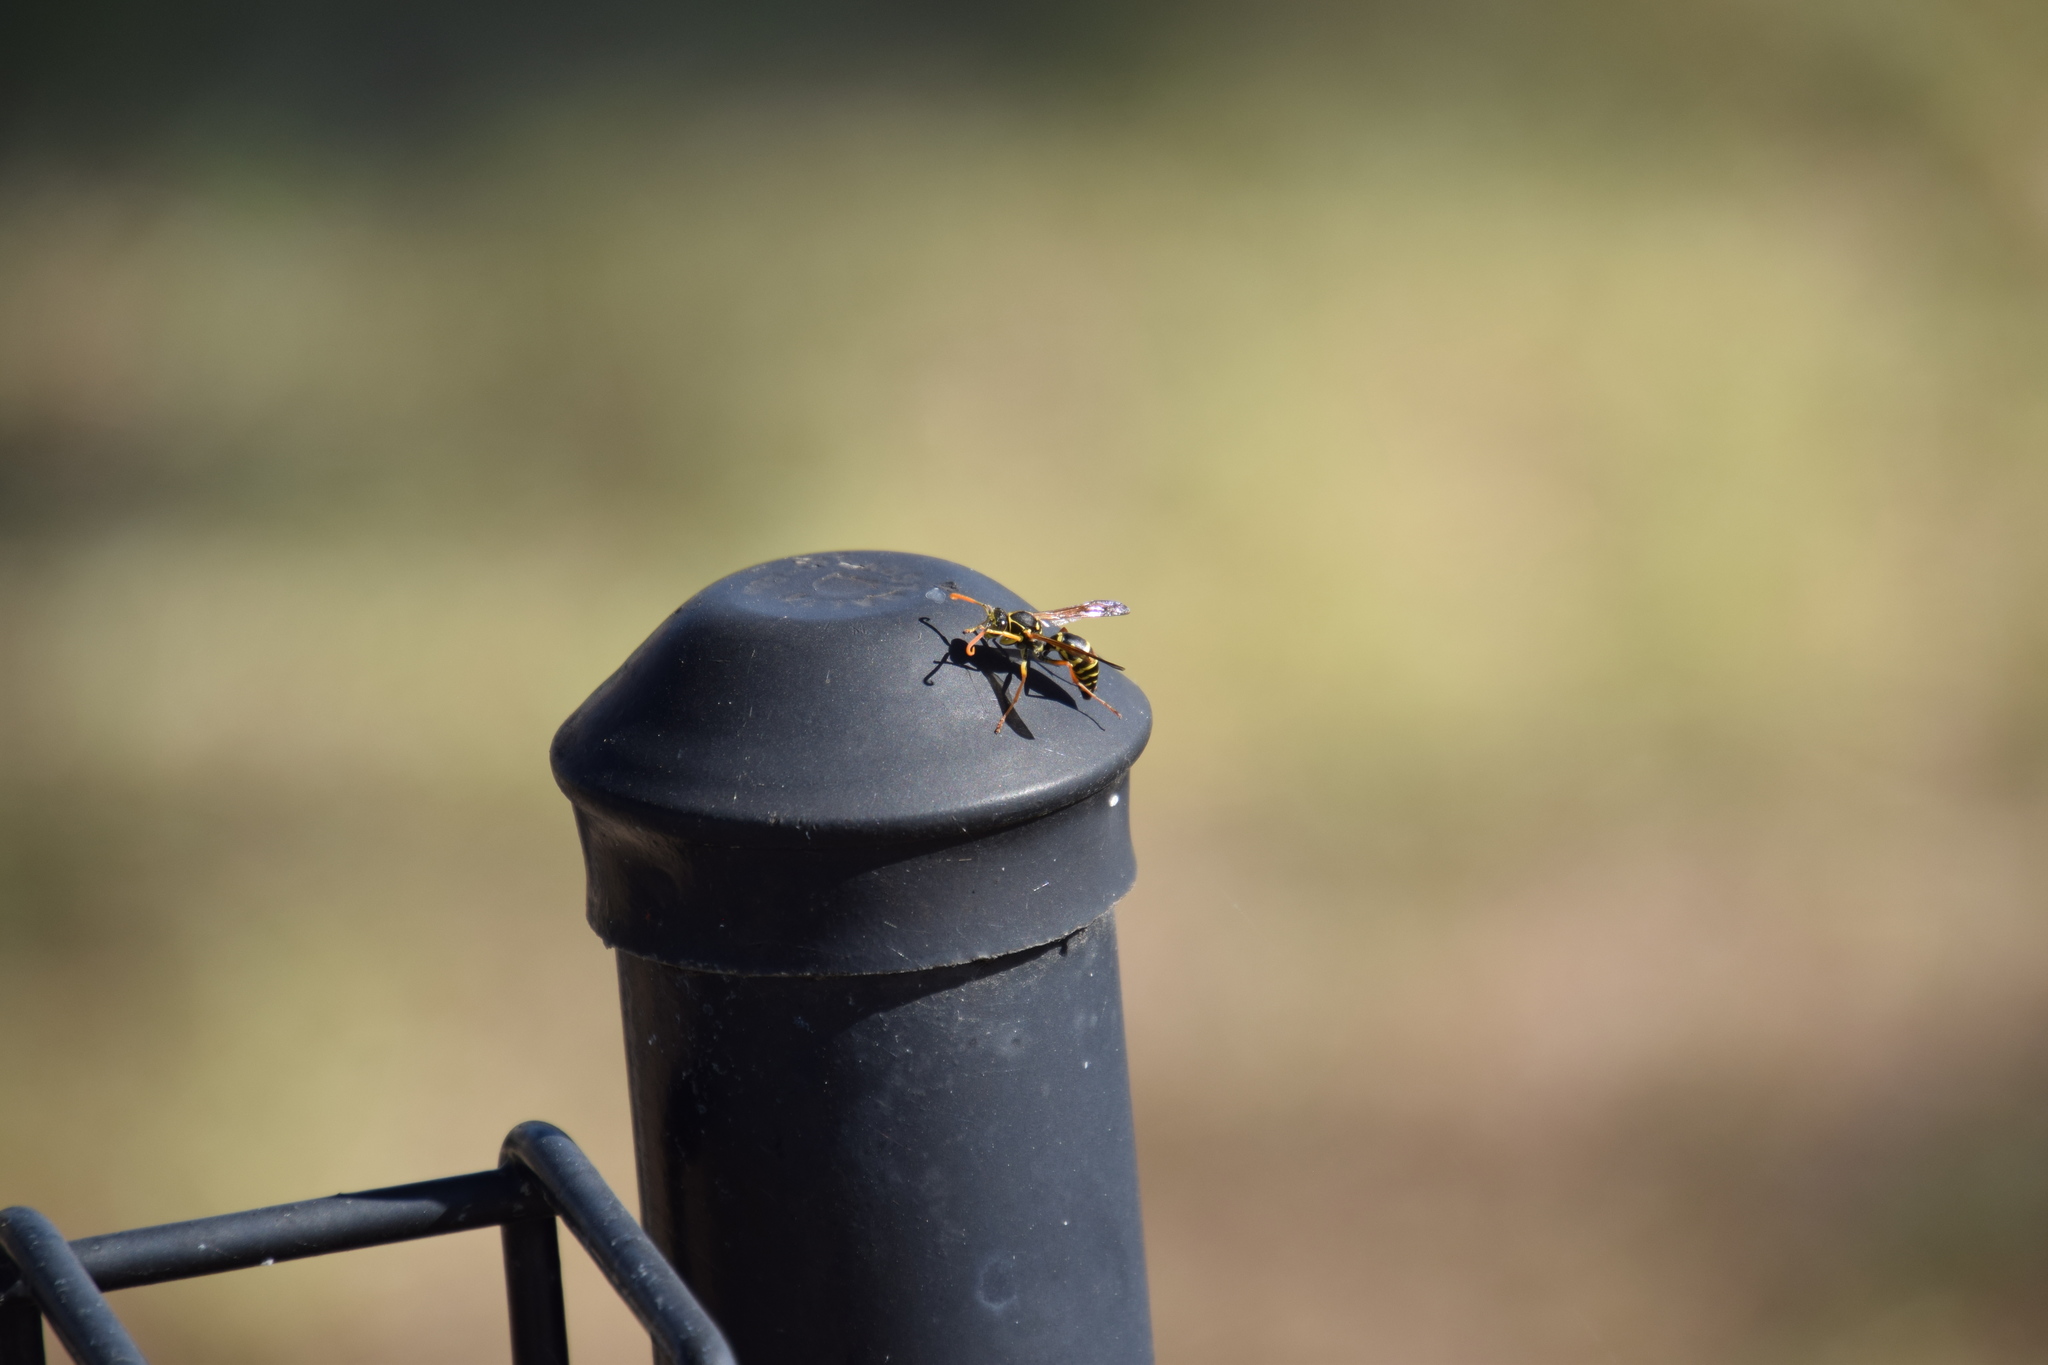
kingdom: Animalia
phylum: Arthropoda
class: Insecta
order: Hymenoptera
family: Eumenidae
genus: Polistes
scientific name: Polistes chinensis
